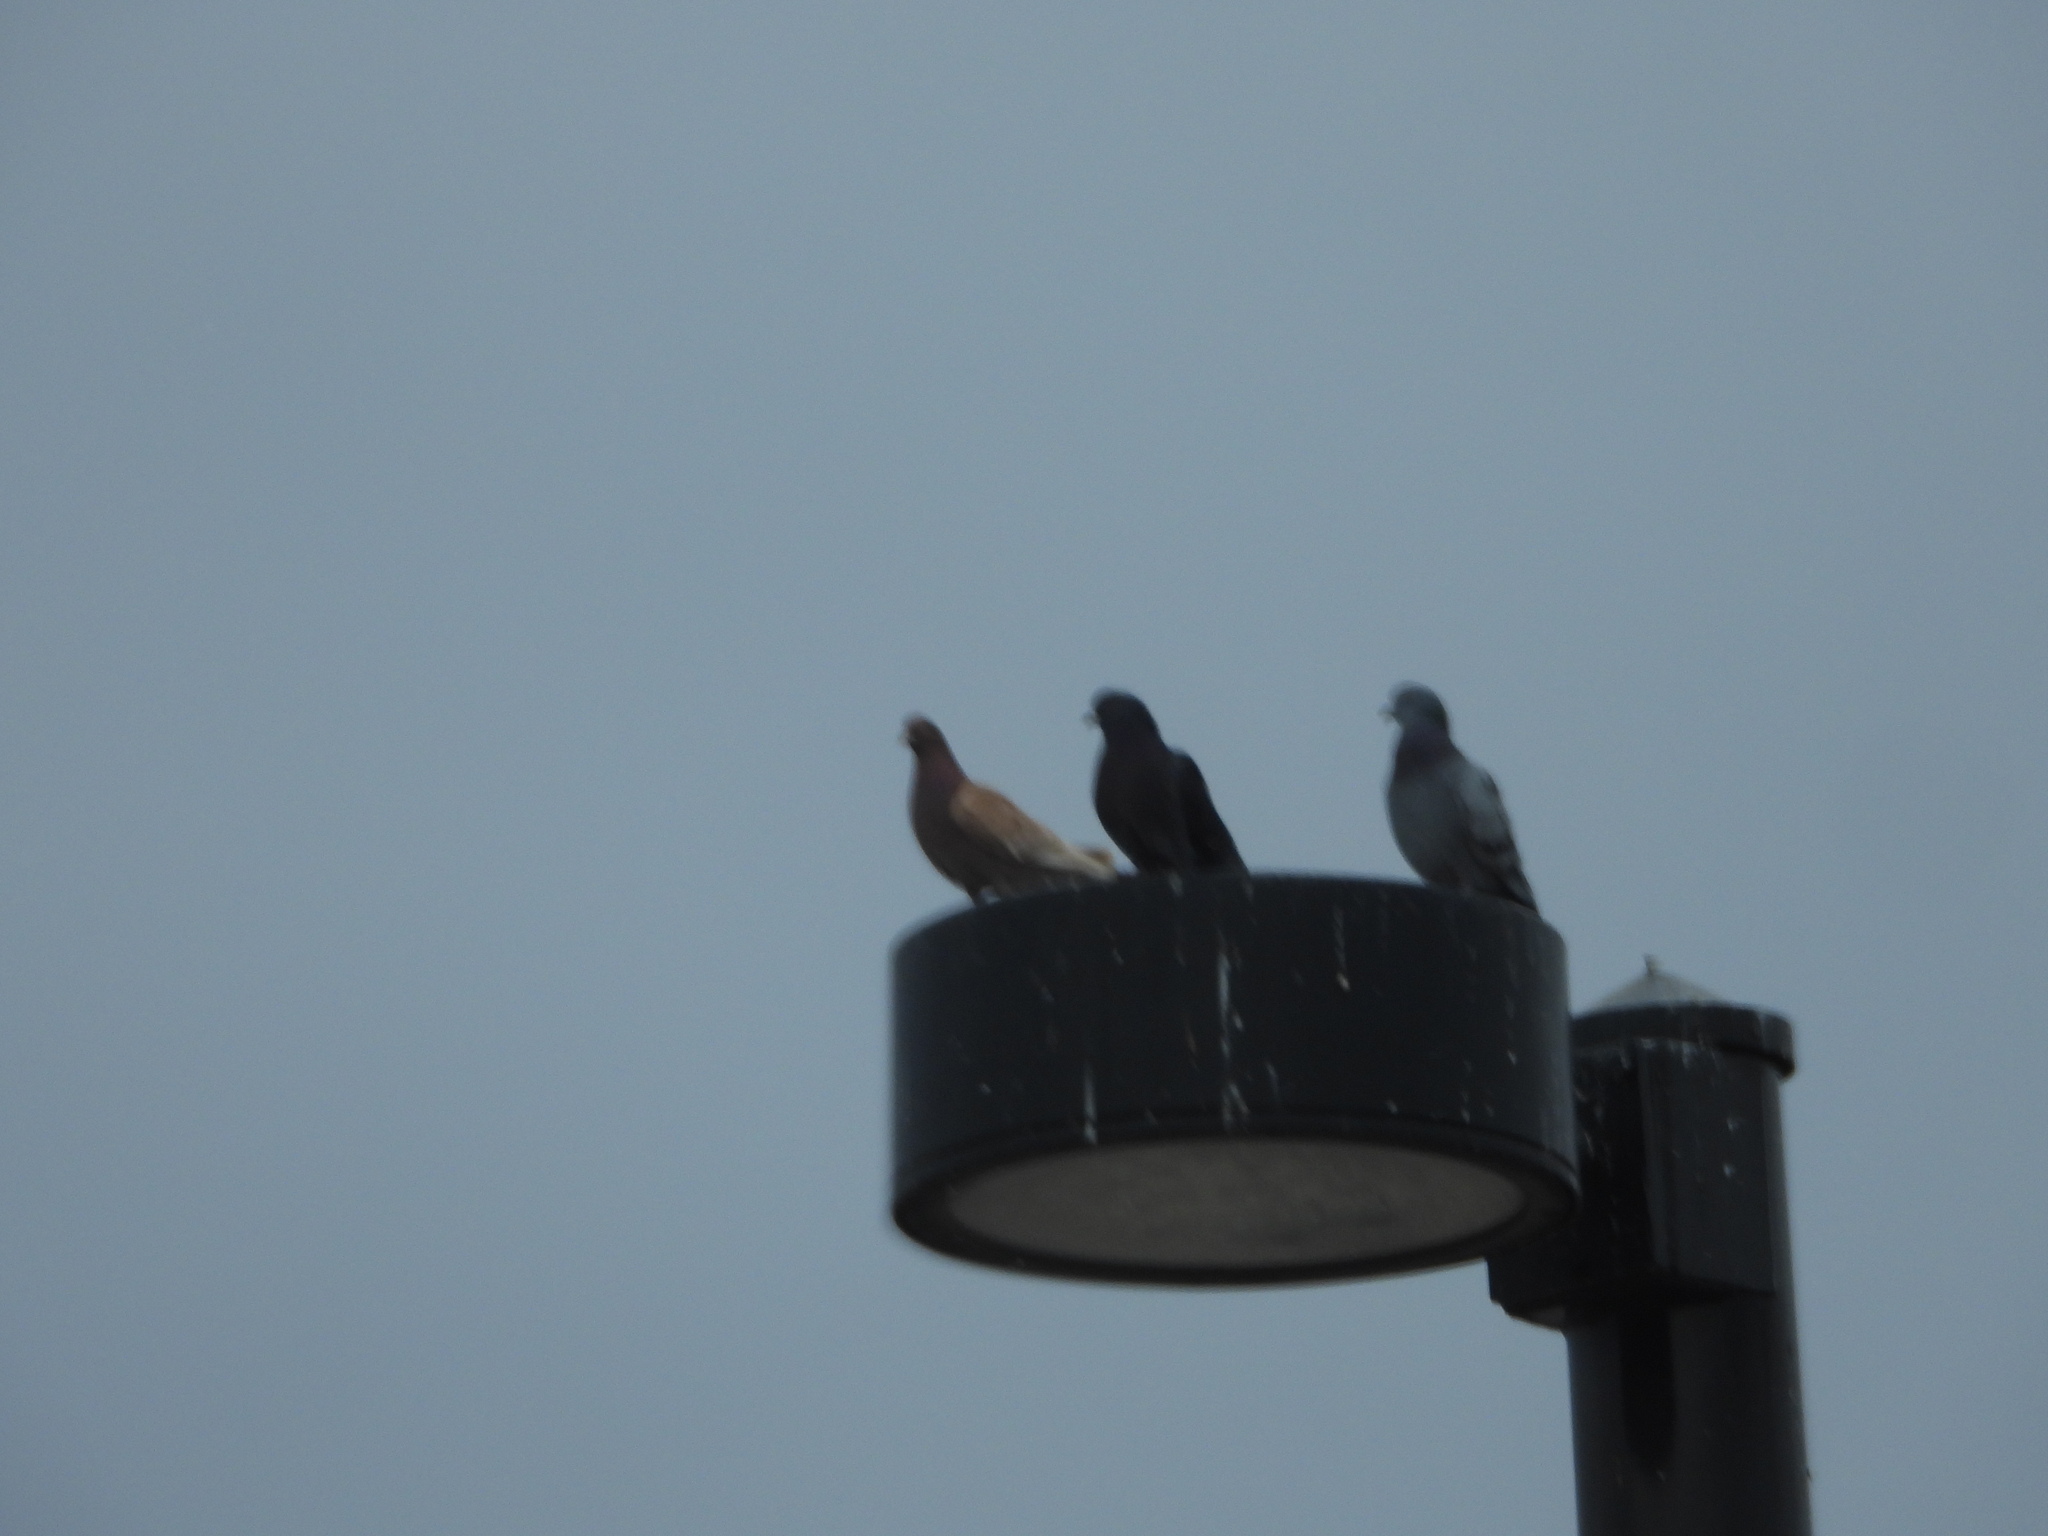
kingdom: Animalia
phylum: Chordata
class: Aves
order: Columbiformes
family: Columbidae
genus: Columba
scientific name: Columba livia
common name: Rock pigeon
